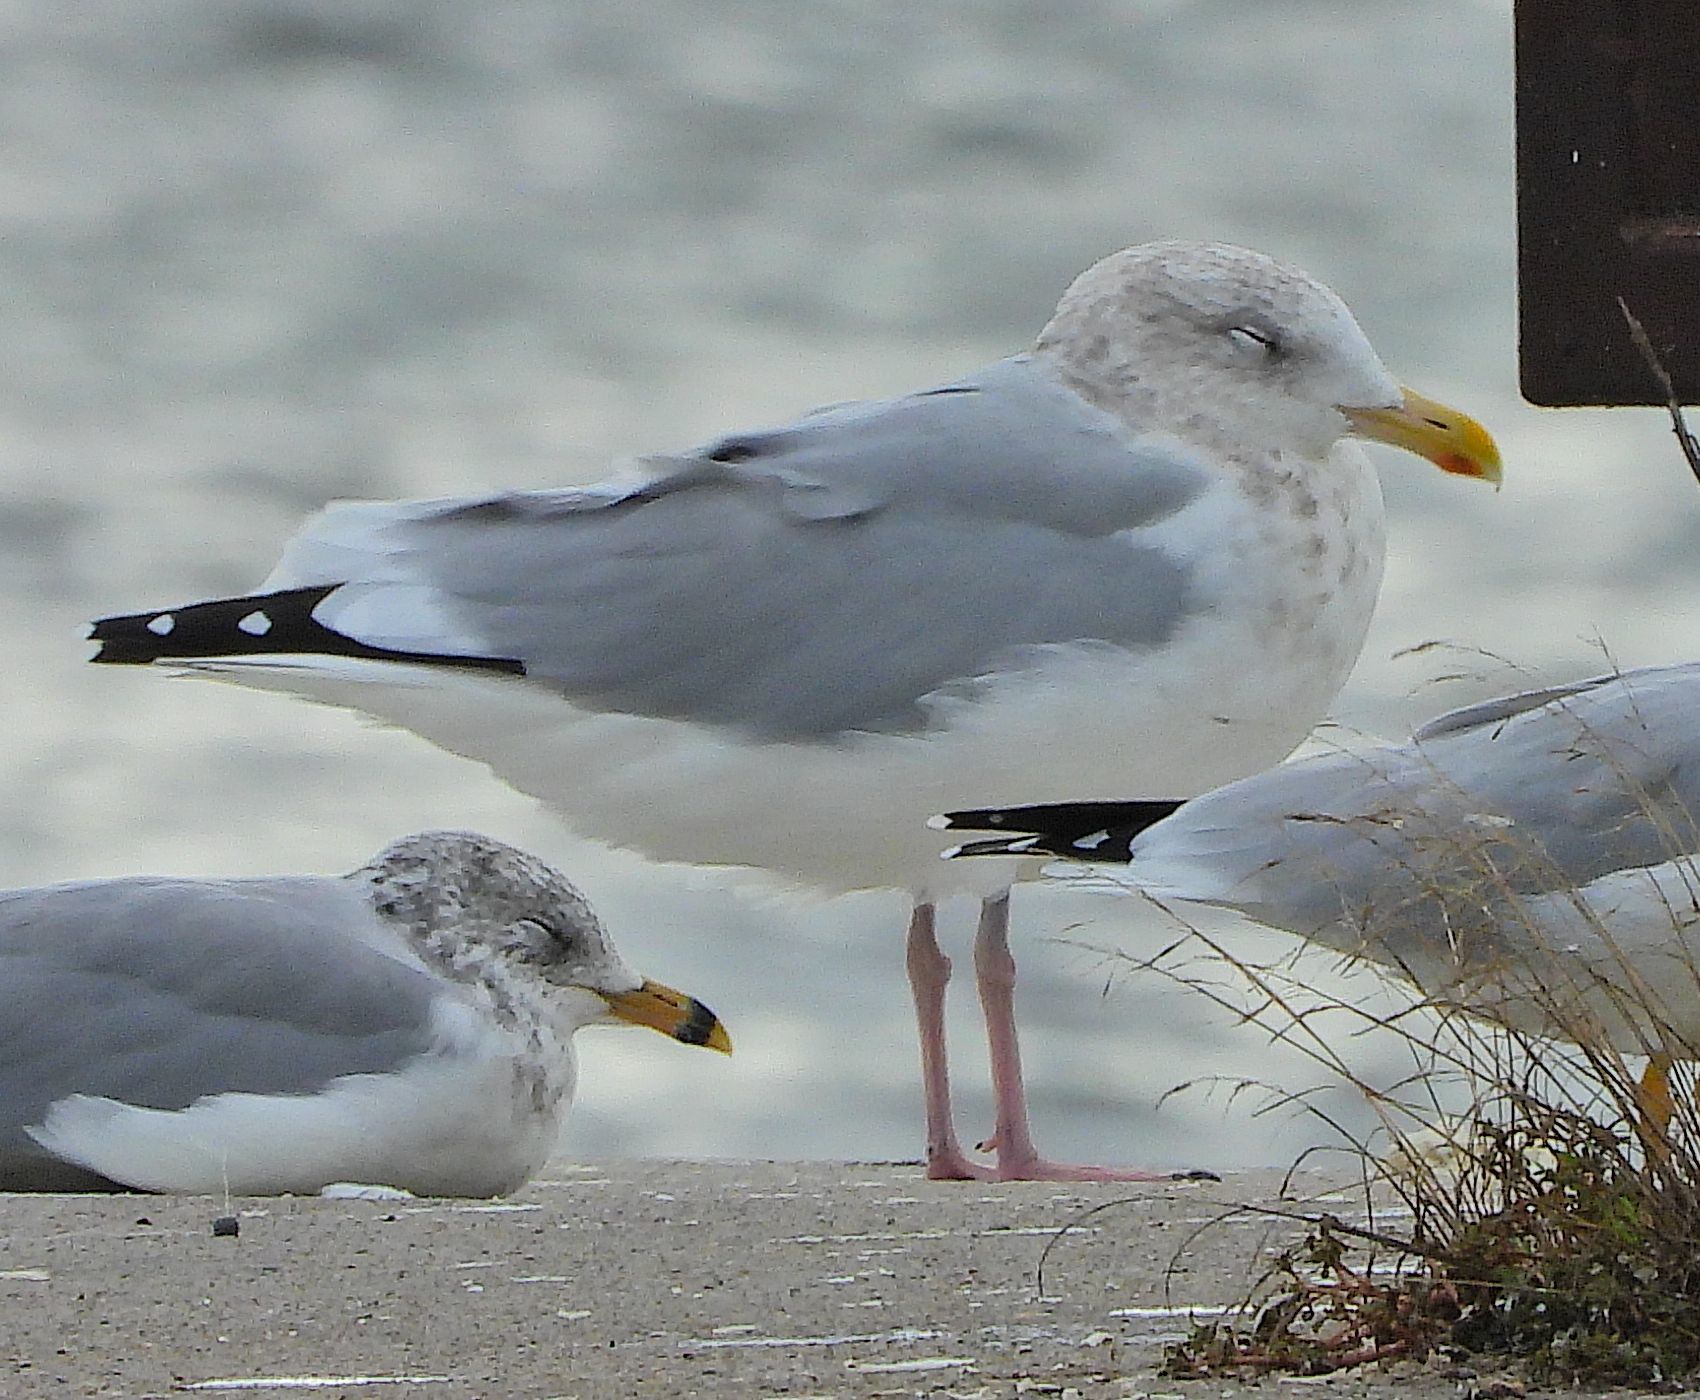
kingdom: Animalia
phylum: Chordata
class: Aves
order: Charadriiformes
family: Laridae
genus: Larus
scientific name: Larus argentatus
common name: Herring gull
